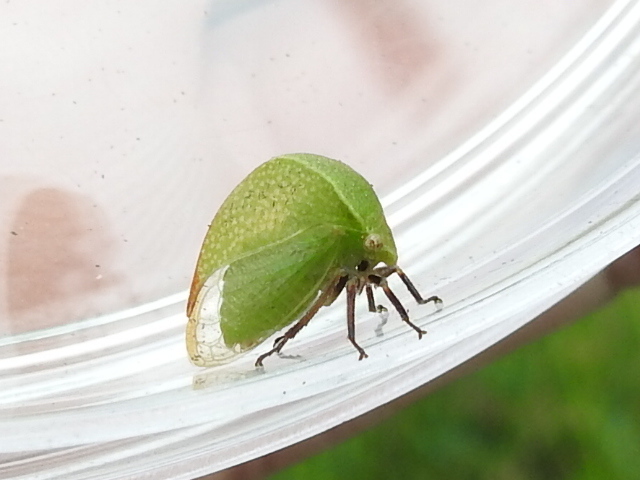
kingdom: Animalia
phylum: Arthropoda
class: Insecta
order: Hemiptera
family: Membracidae
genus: Tortistilus
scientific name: Tortistilus inermis
